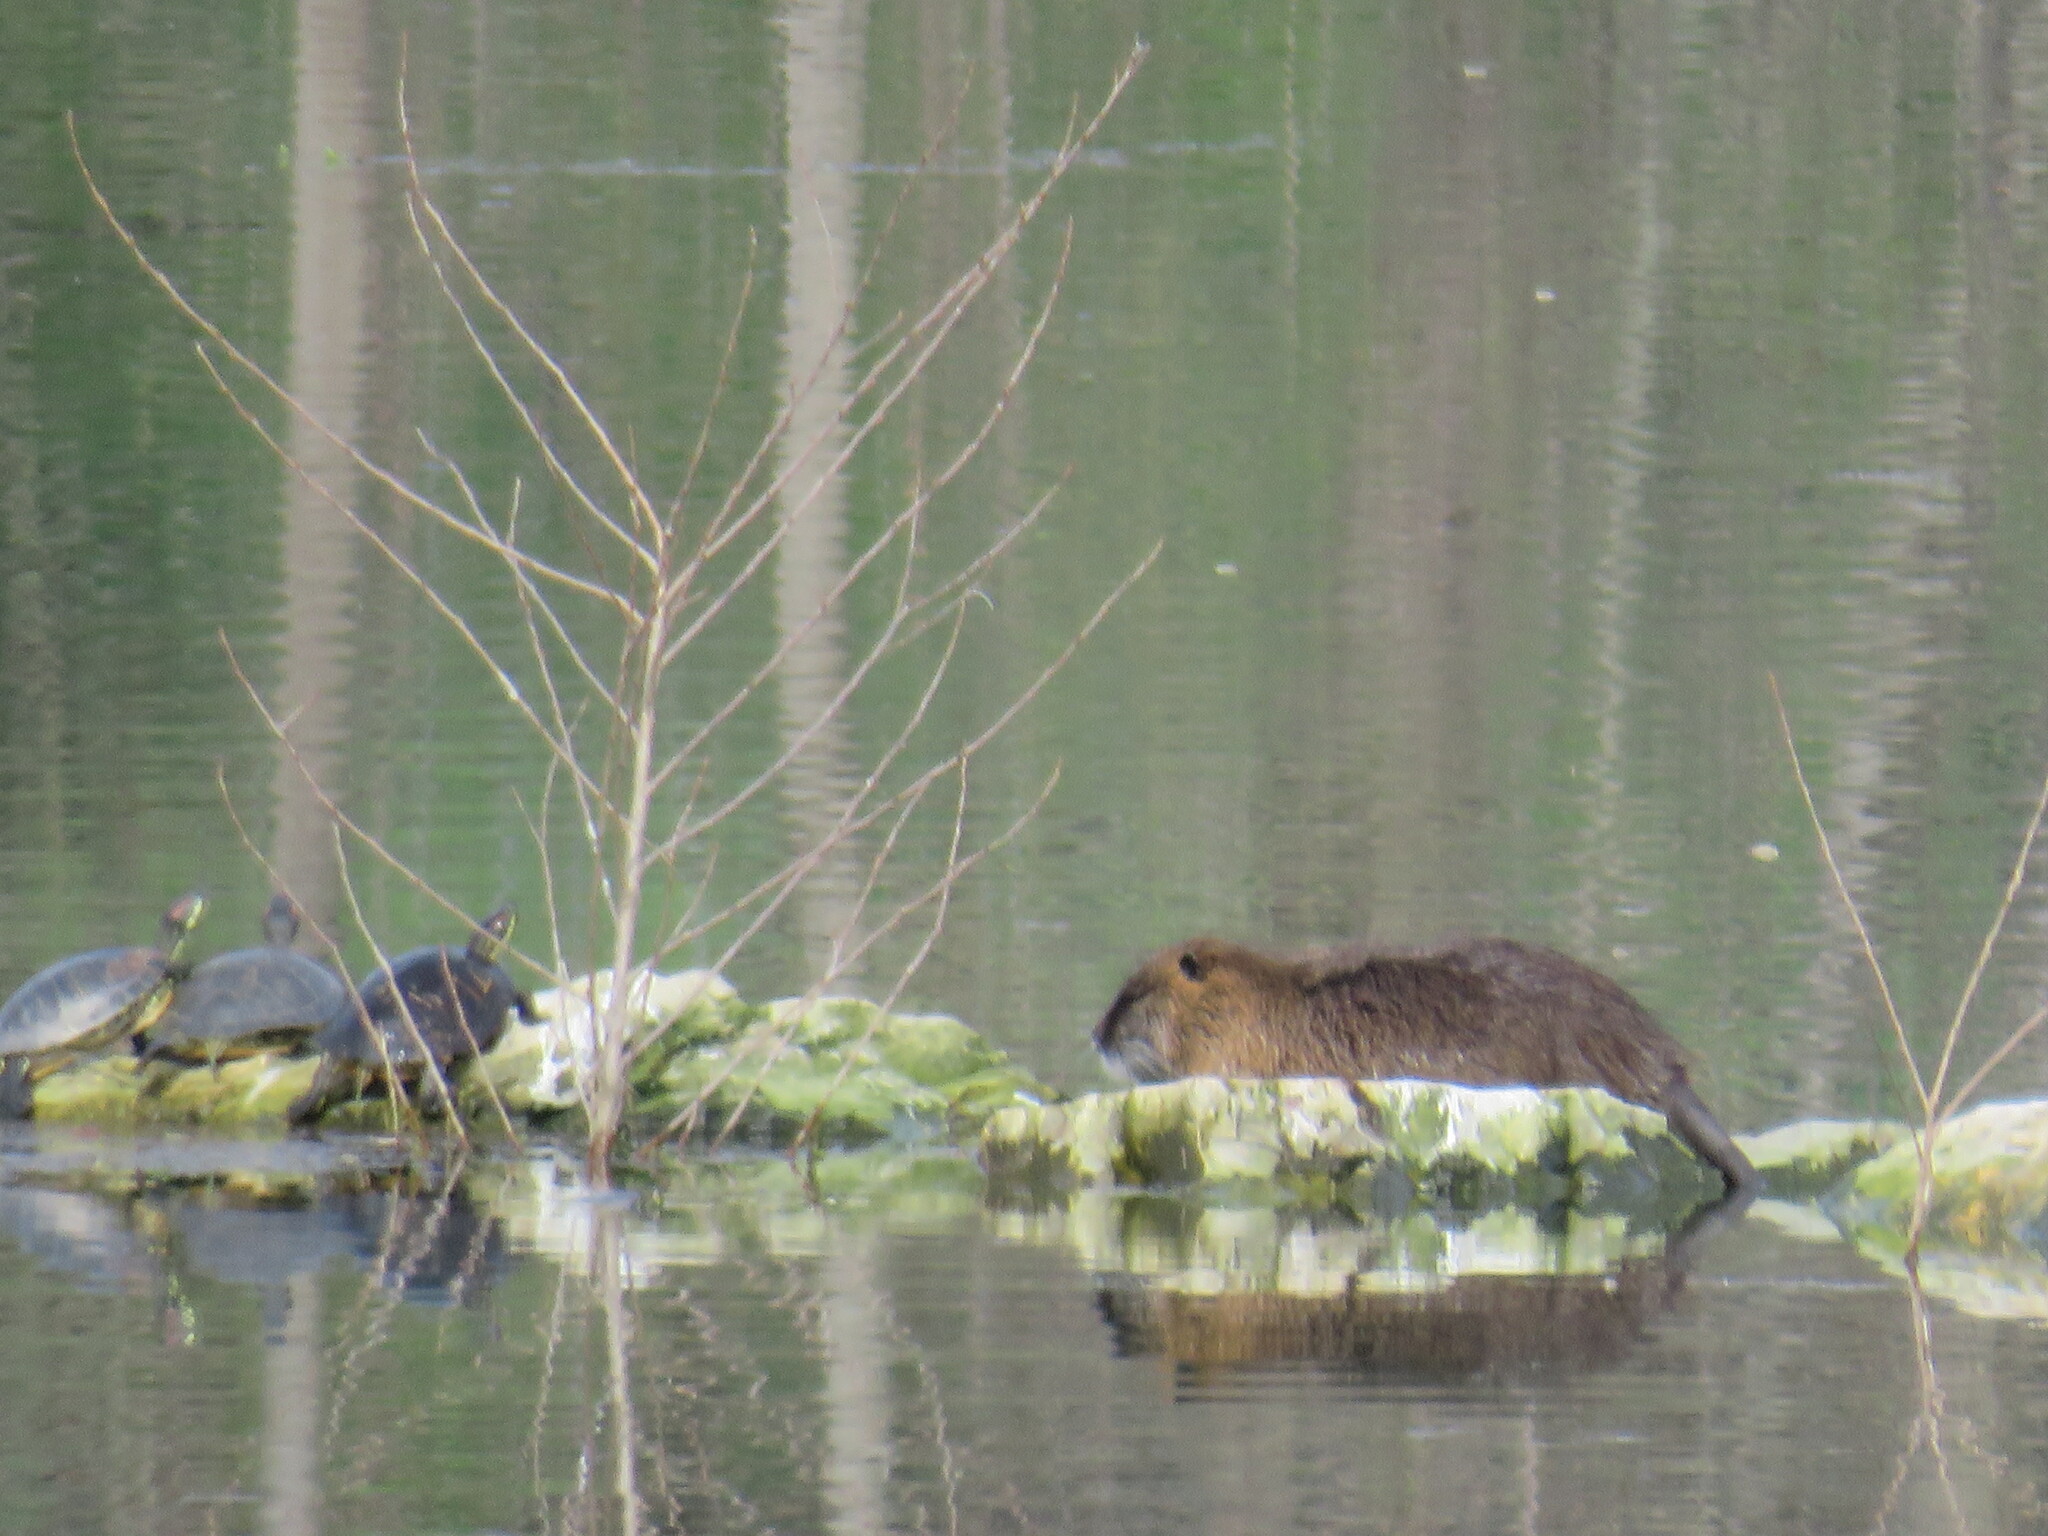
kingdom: Animalia
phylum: Chordata
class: Mammalia
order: Rodentia
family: Myocastoridae
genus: Myocastor
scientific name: Myocastor coypus
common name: Coypu
